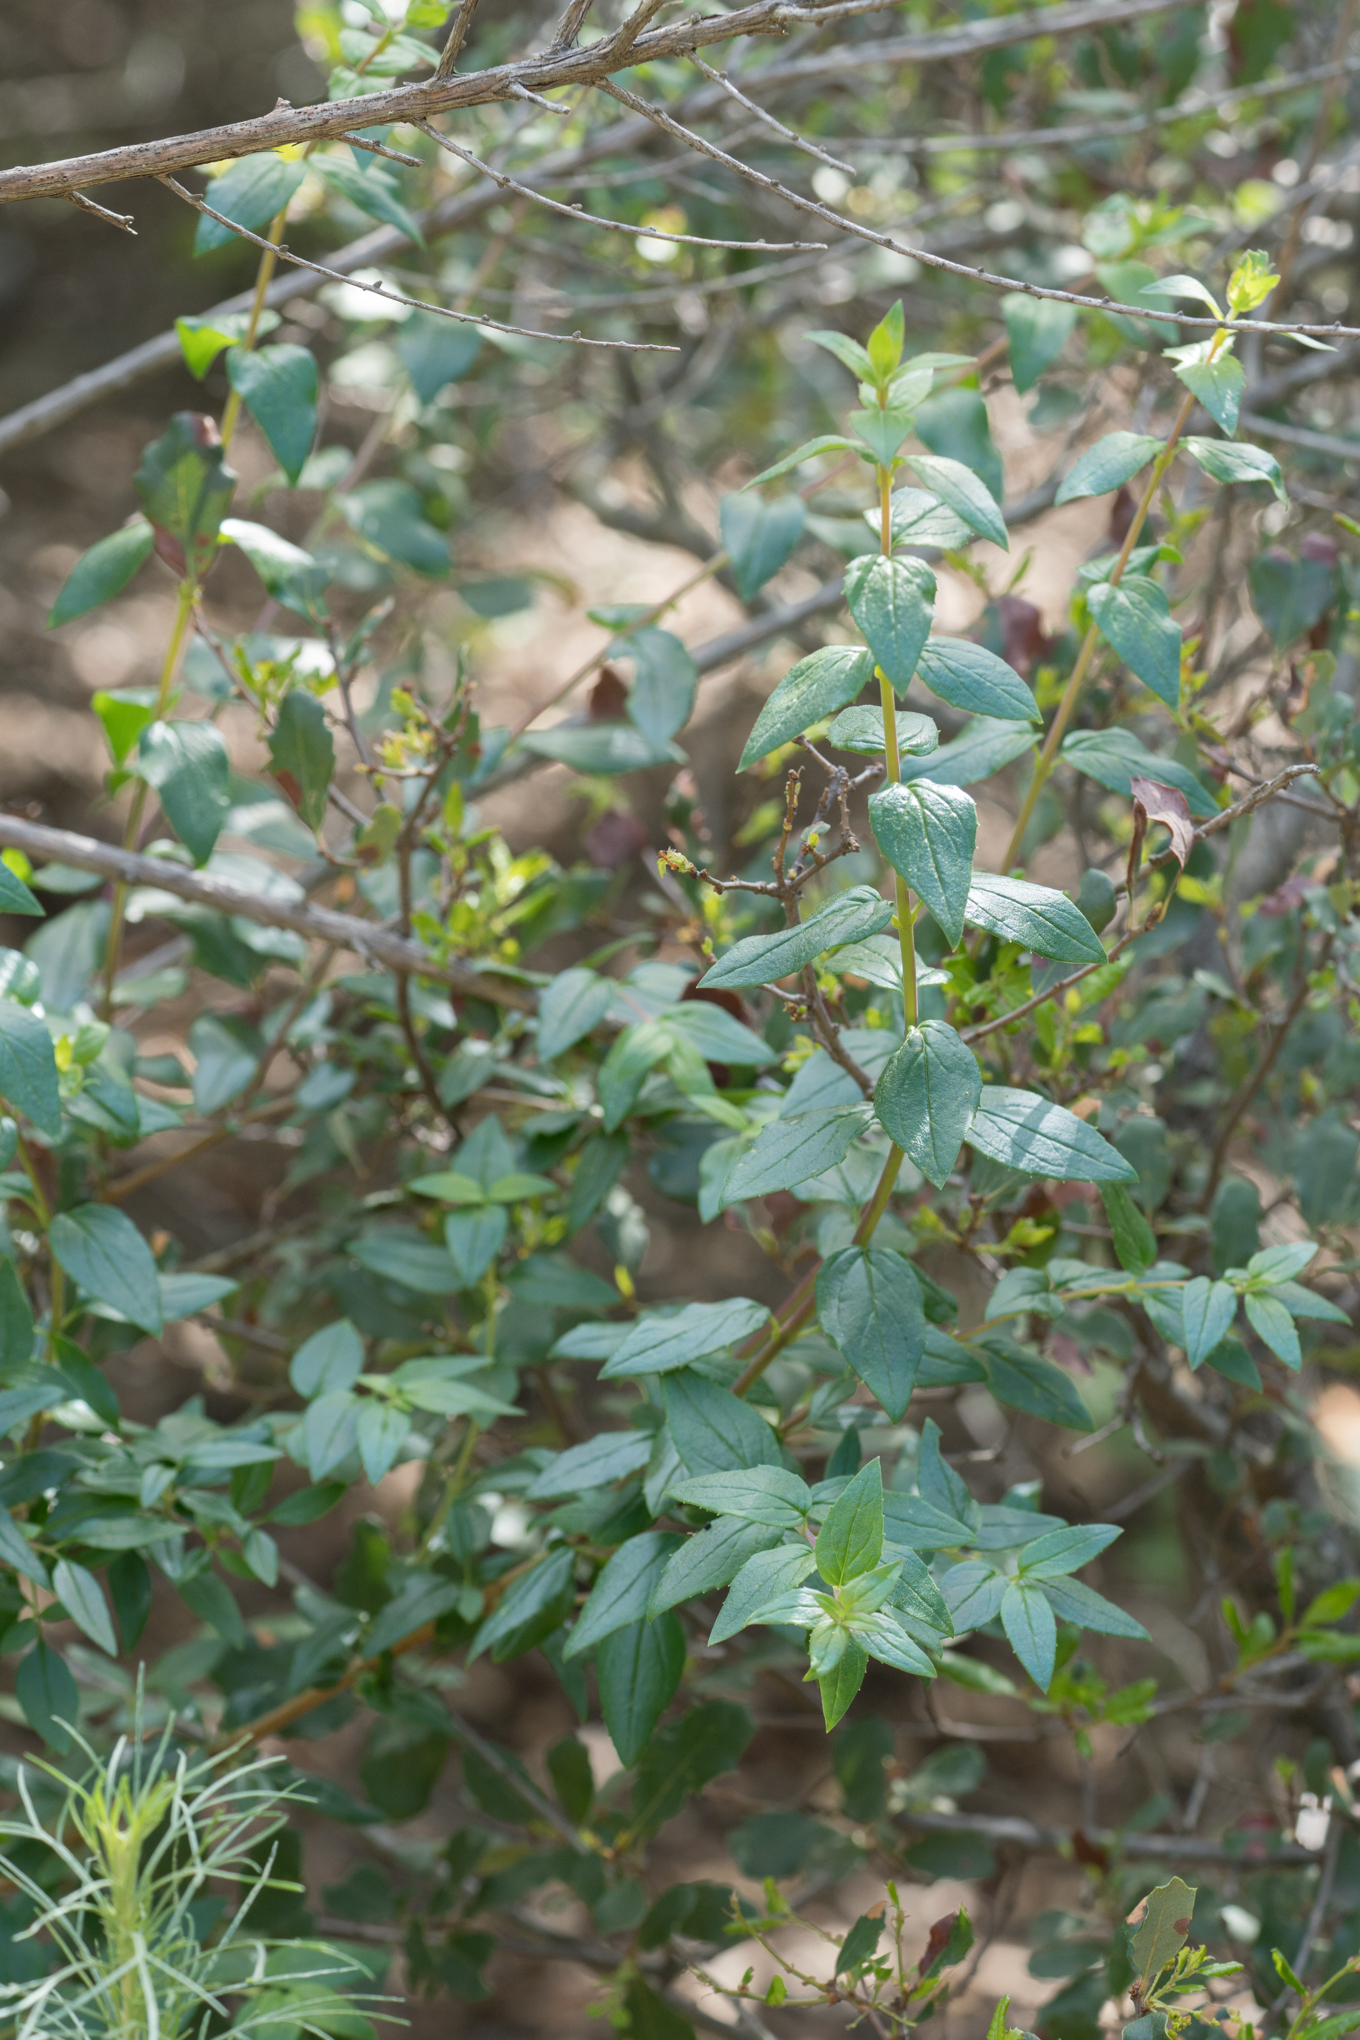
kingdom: Plantae
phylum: Tracheophyta
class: Magnoliopsida
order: Lamiales
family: Plantaginaceae
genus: Keckiella
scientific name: Keckiella cordifolia
